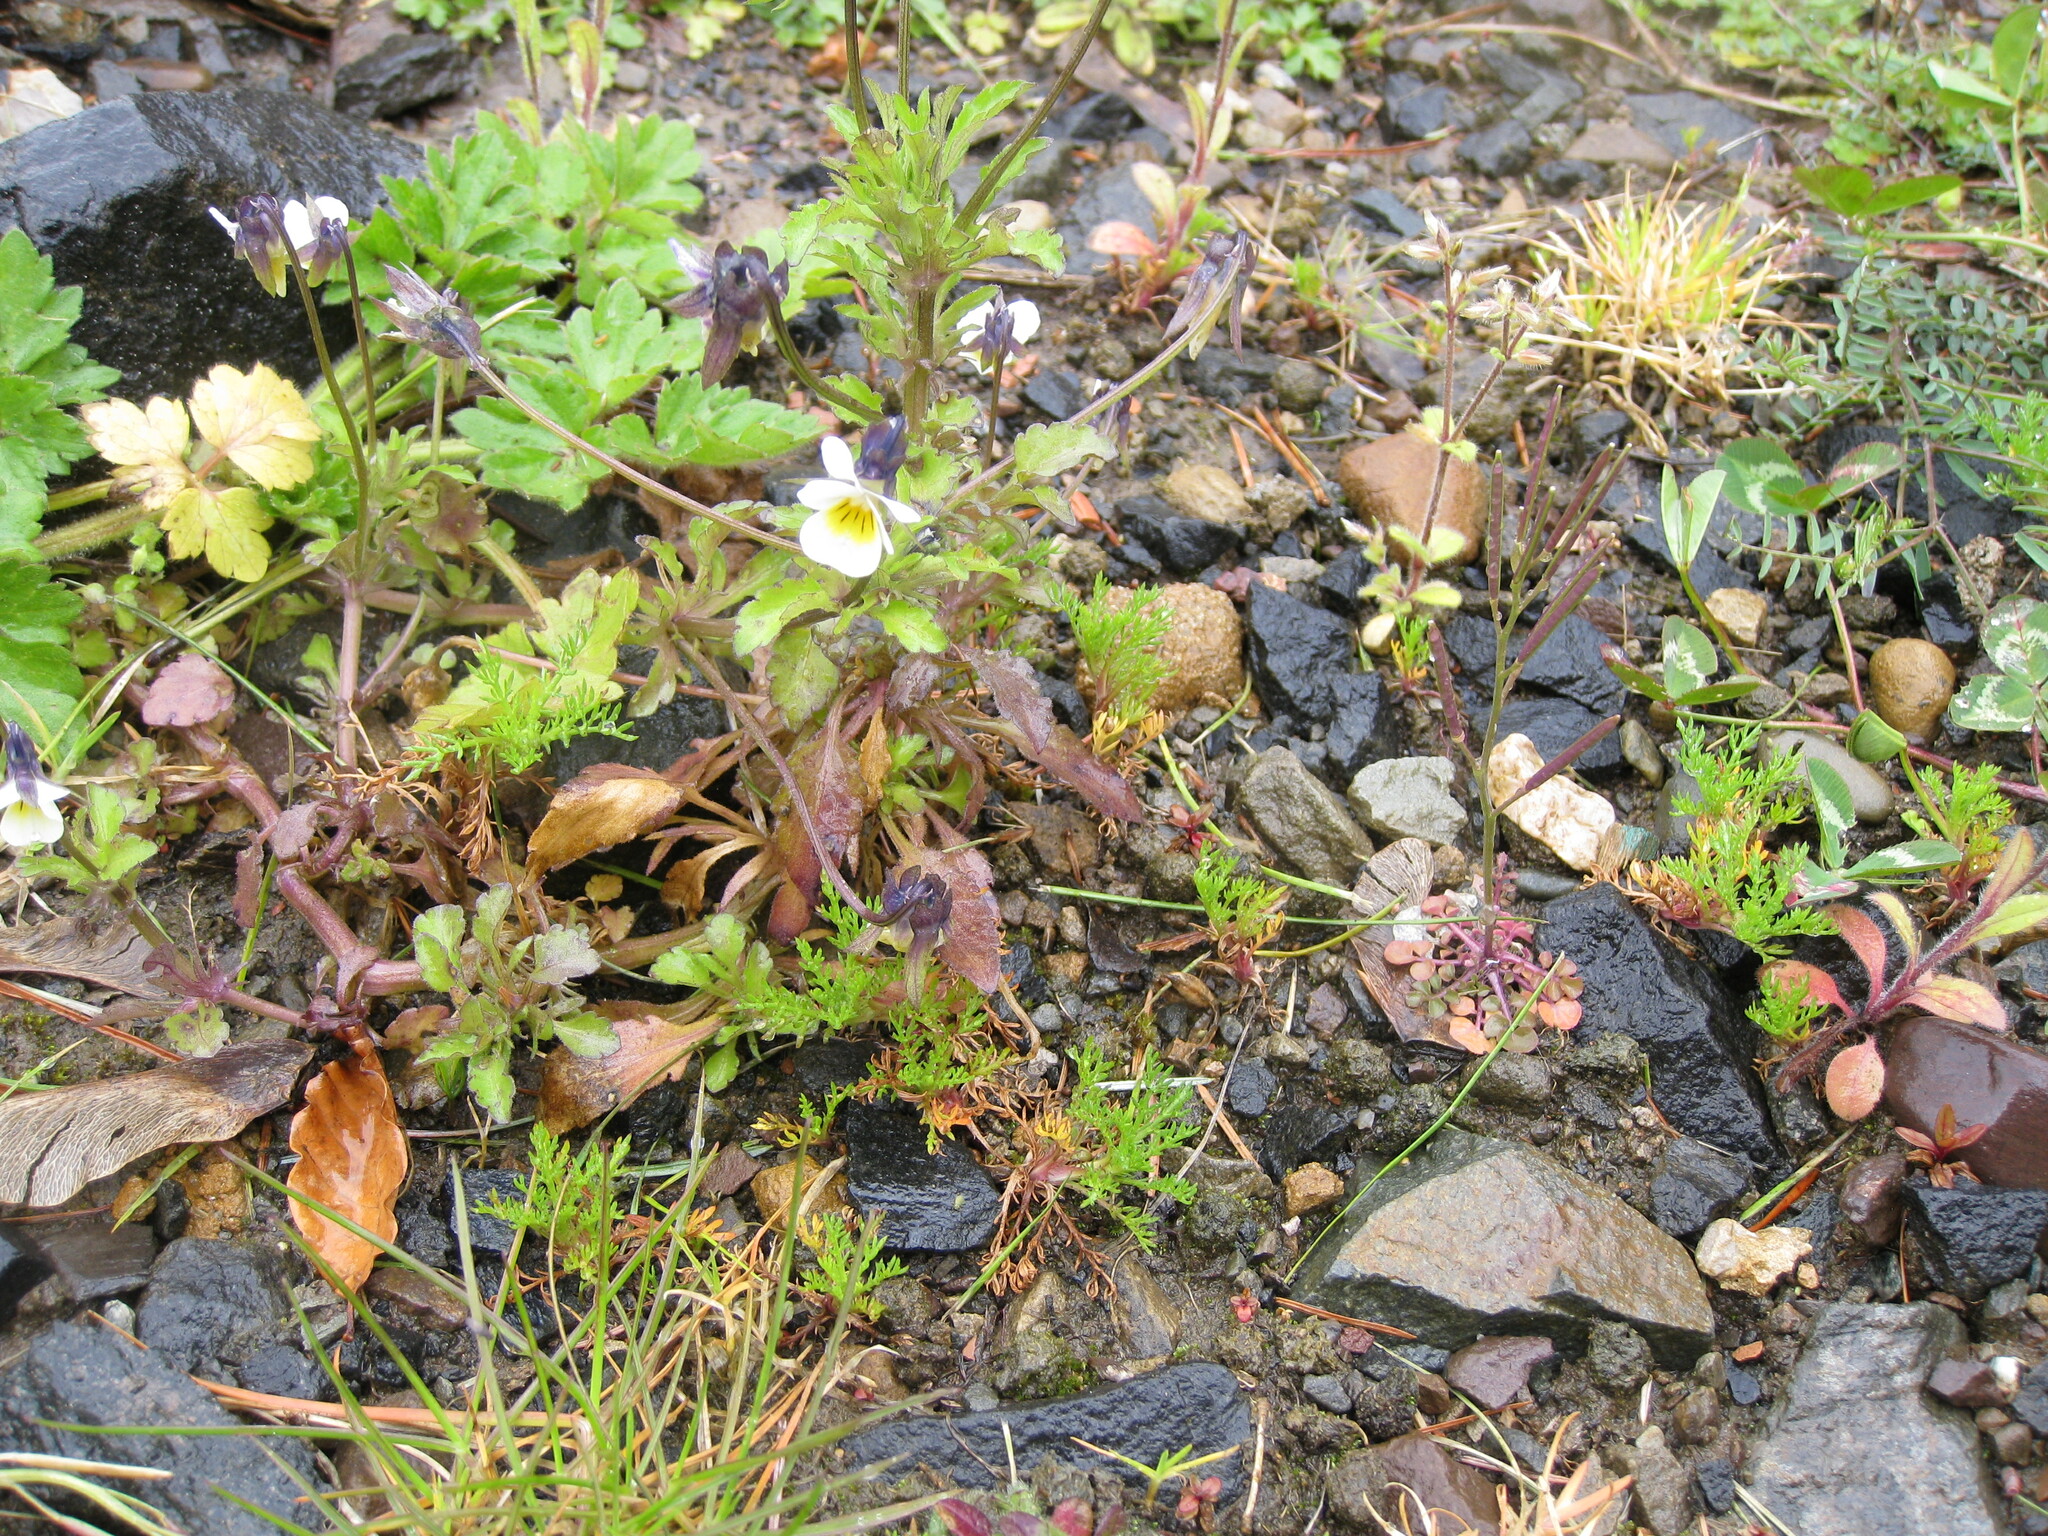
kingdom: Plantae
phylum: Tracheophyta
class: Magnoliopsida
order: Malpighiales
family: Violaceae
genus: Viola
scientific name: Viola arvensis
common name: Field pansy
